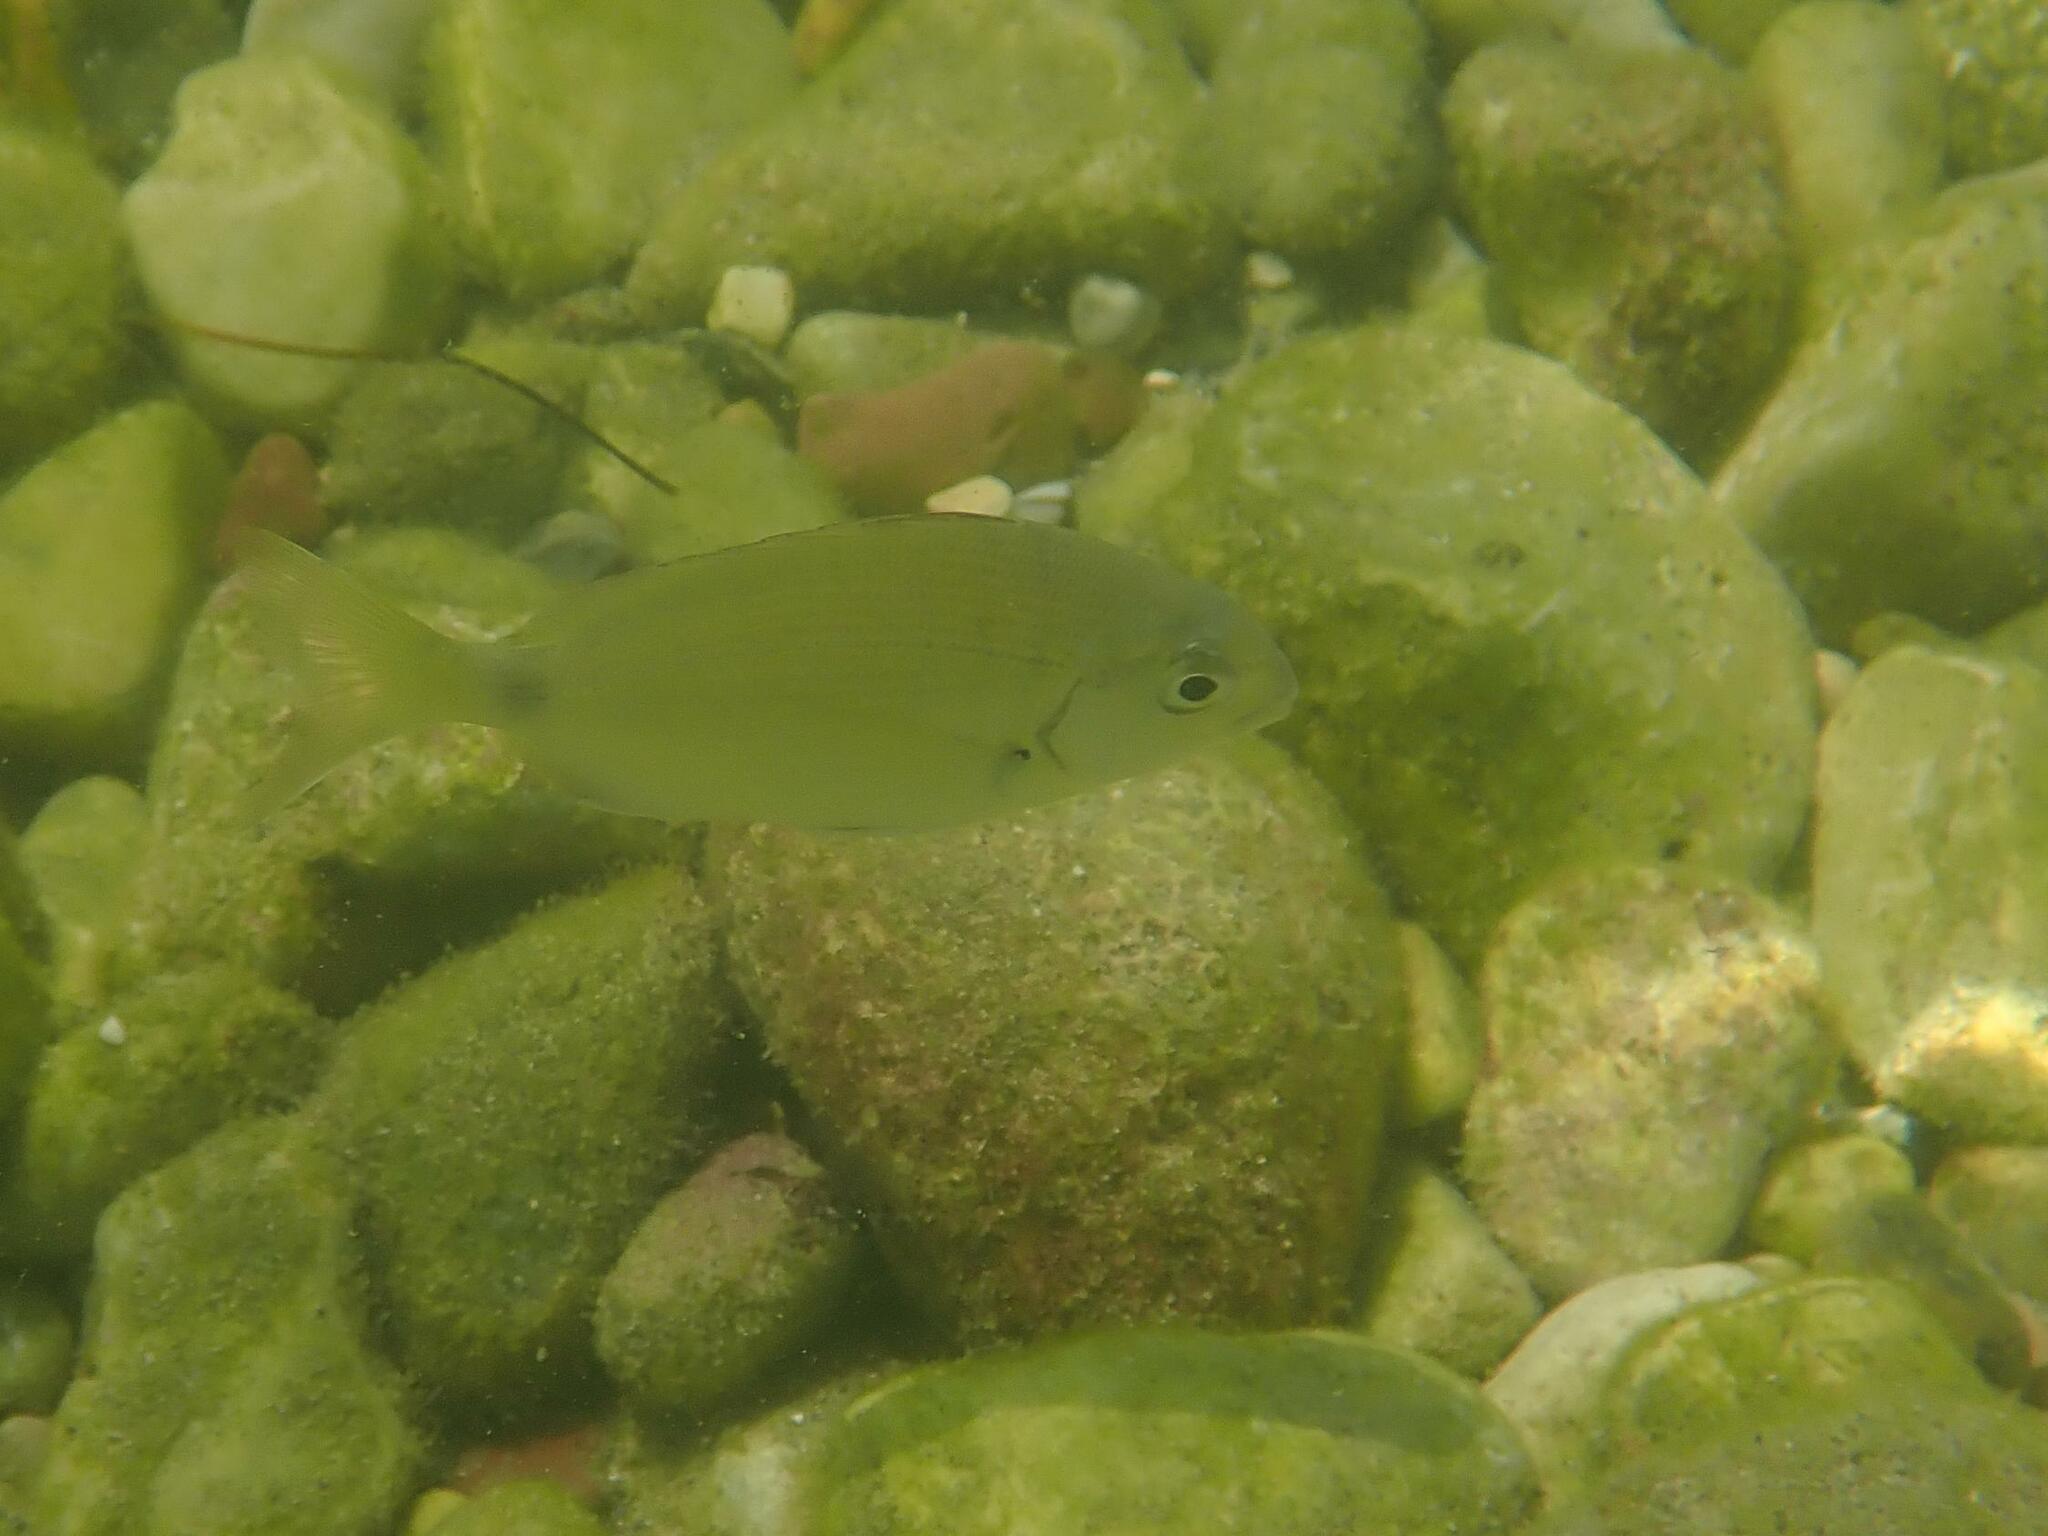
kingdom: Animalia
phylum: Chordata
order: Perciformes
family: Sparidae
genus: Diplodus
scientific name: Diplodus sargus
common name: White seabream
